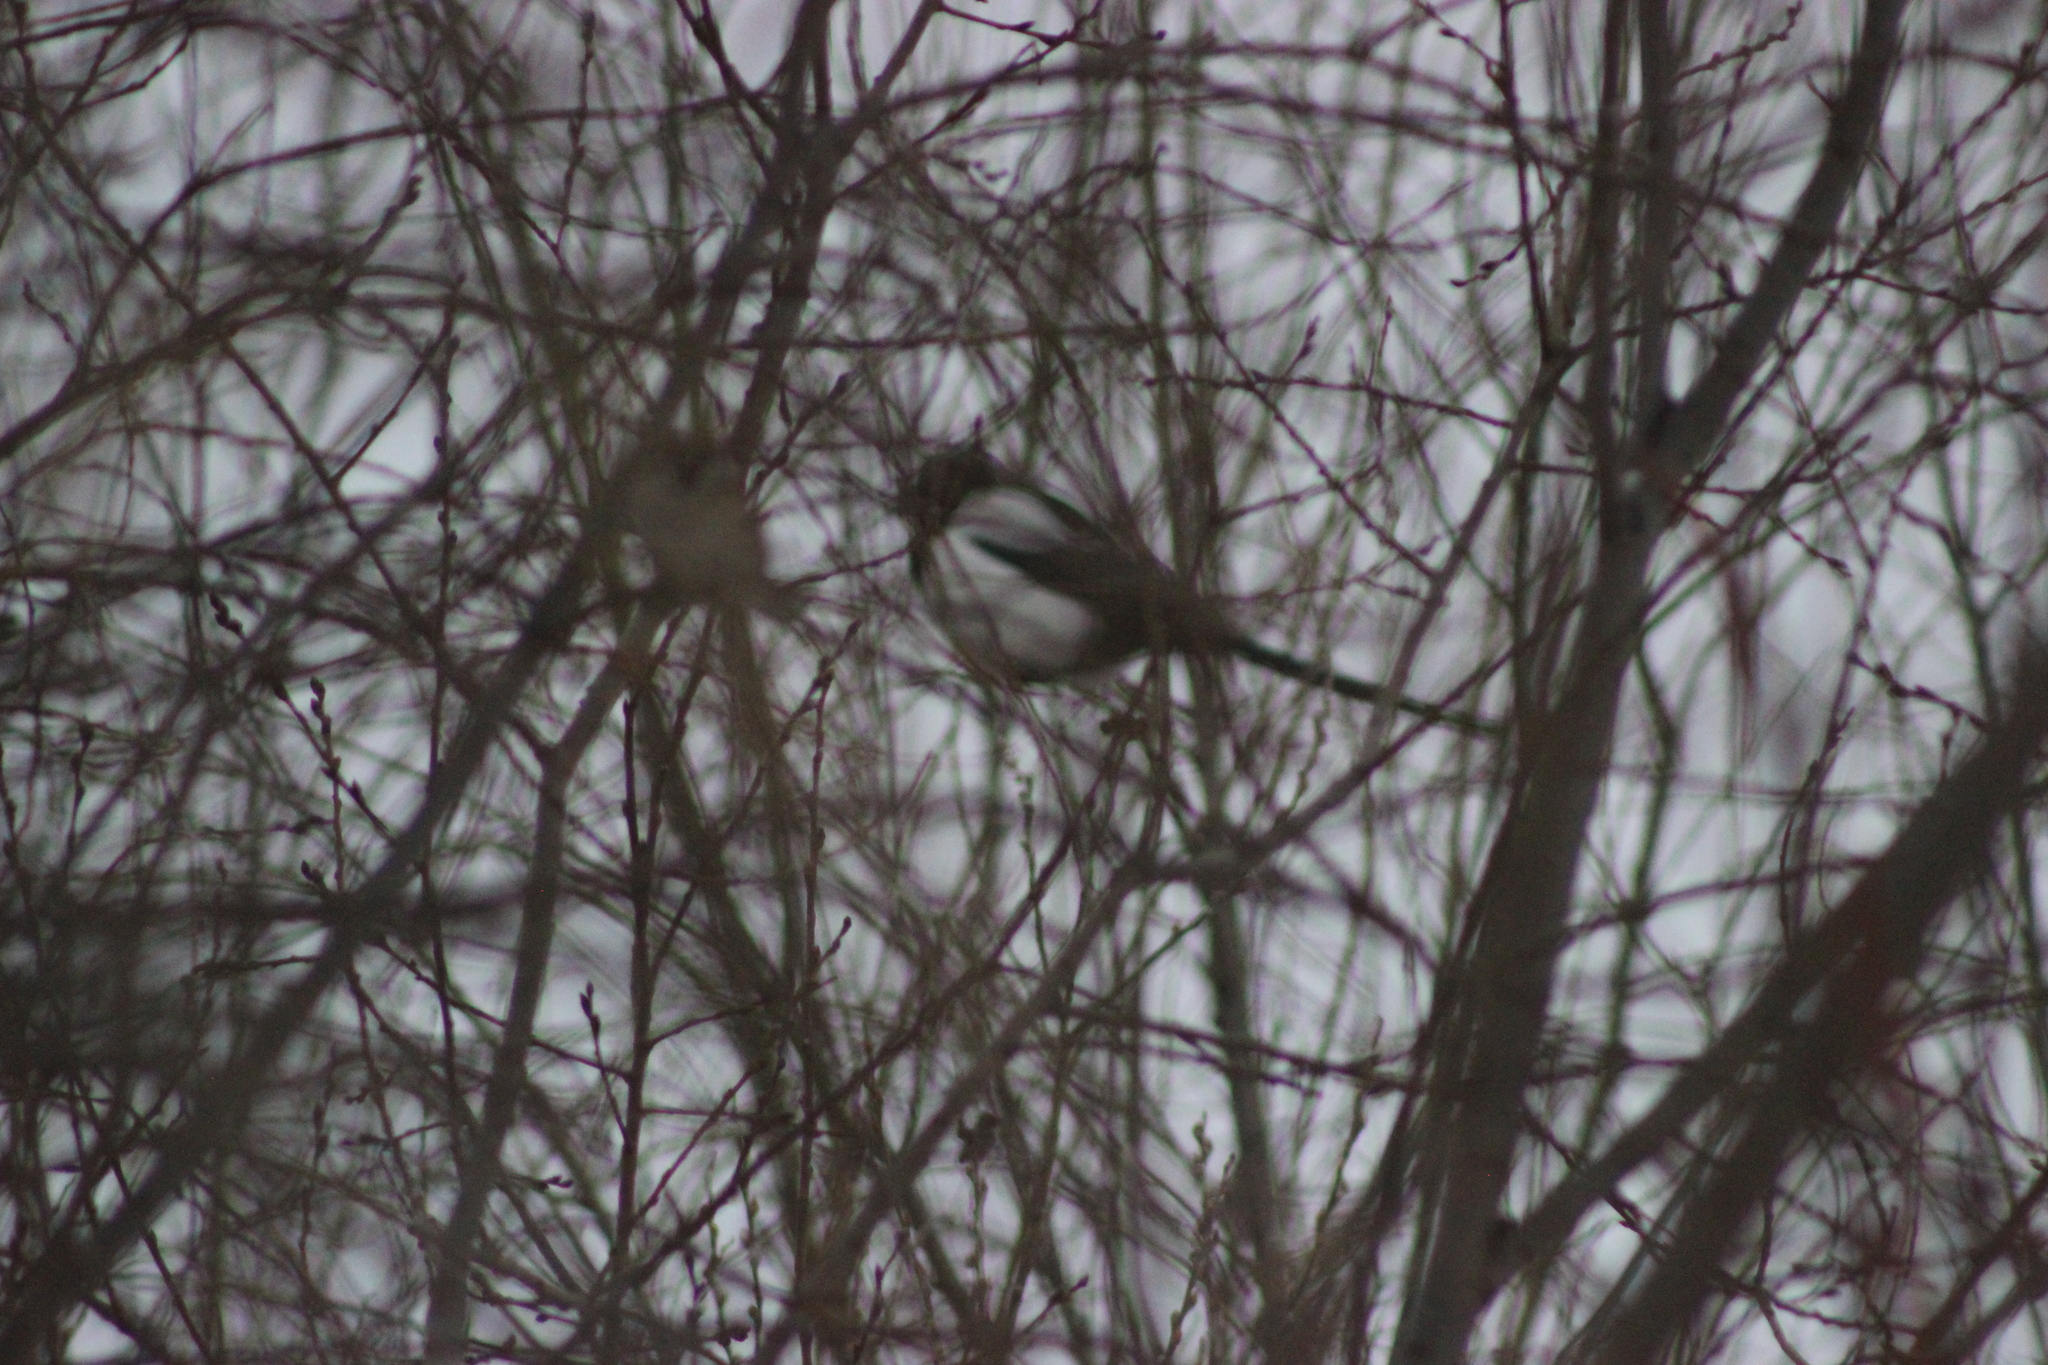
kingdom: Animalia
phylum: Chordata
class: Aves
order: Passeriformes
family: Corvidae
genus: Pica
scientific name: Pica pica
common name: Eurasian magpie
